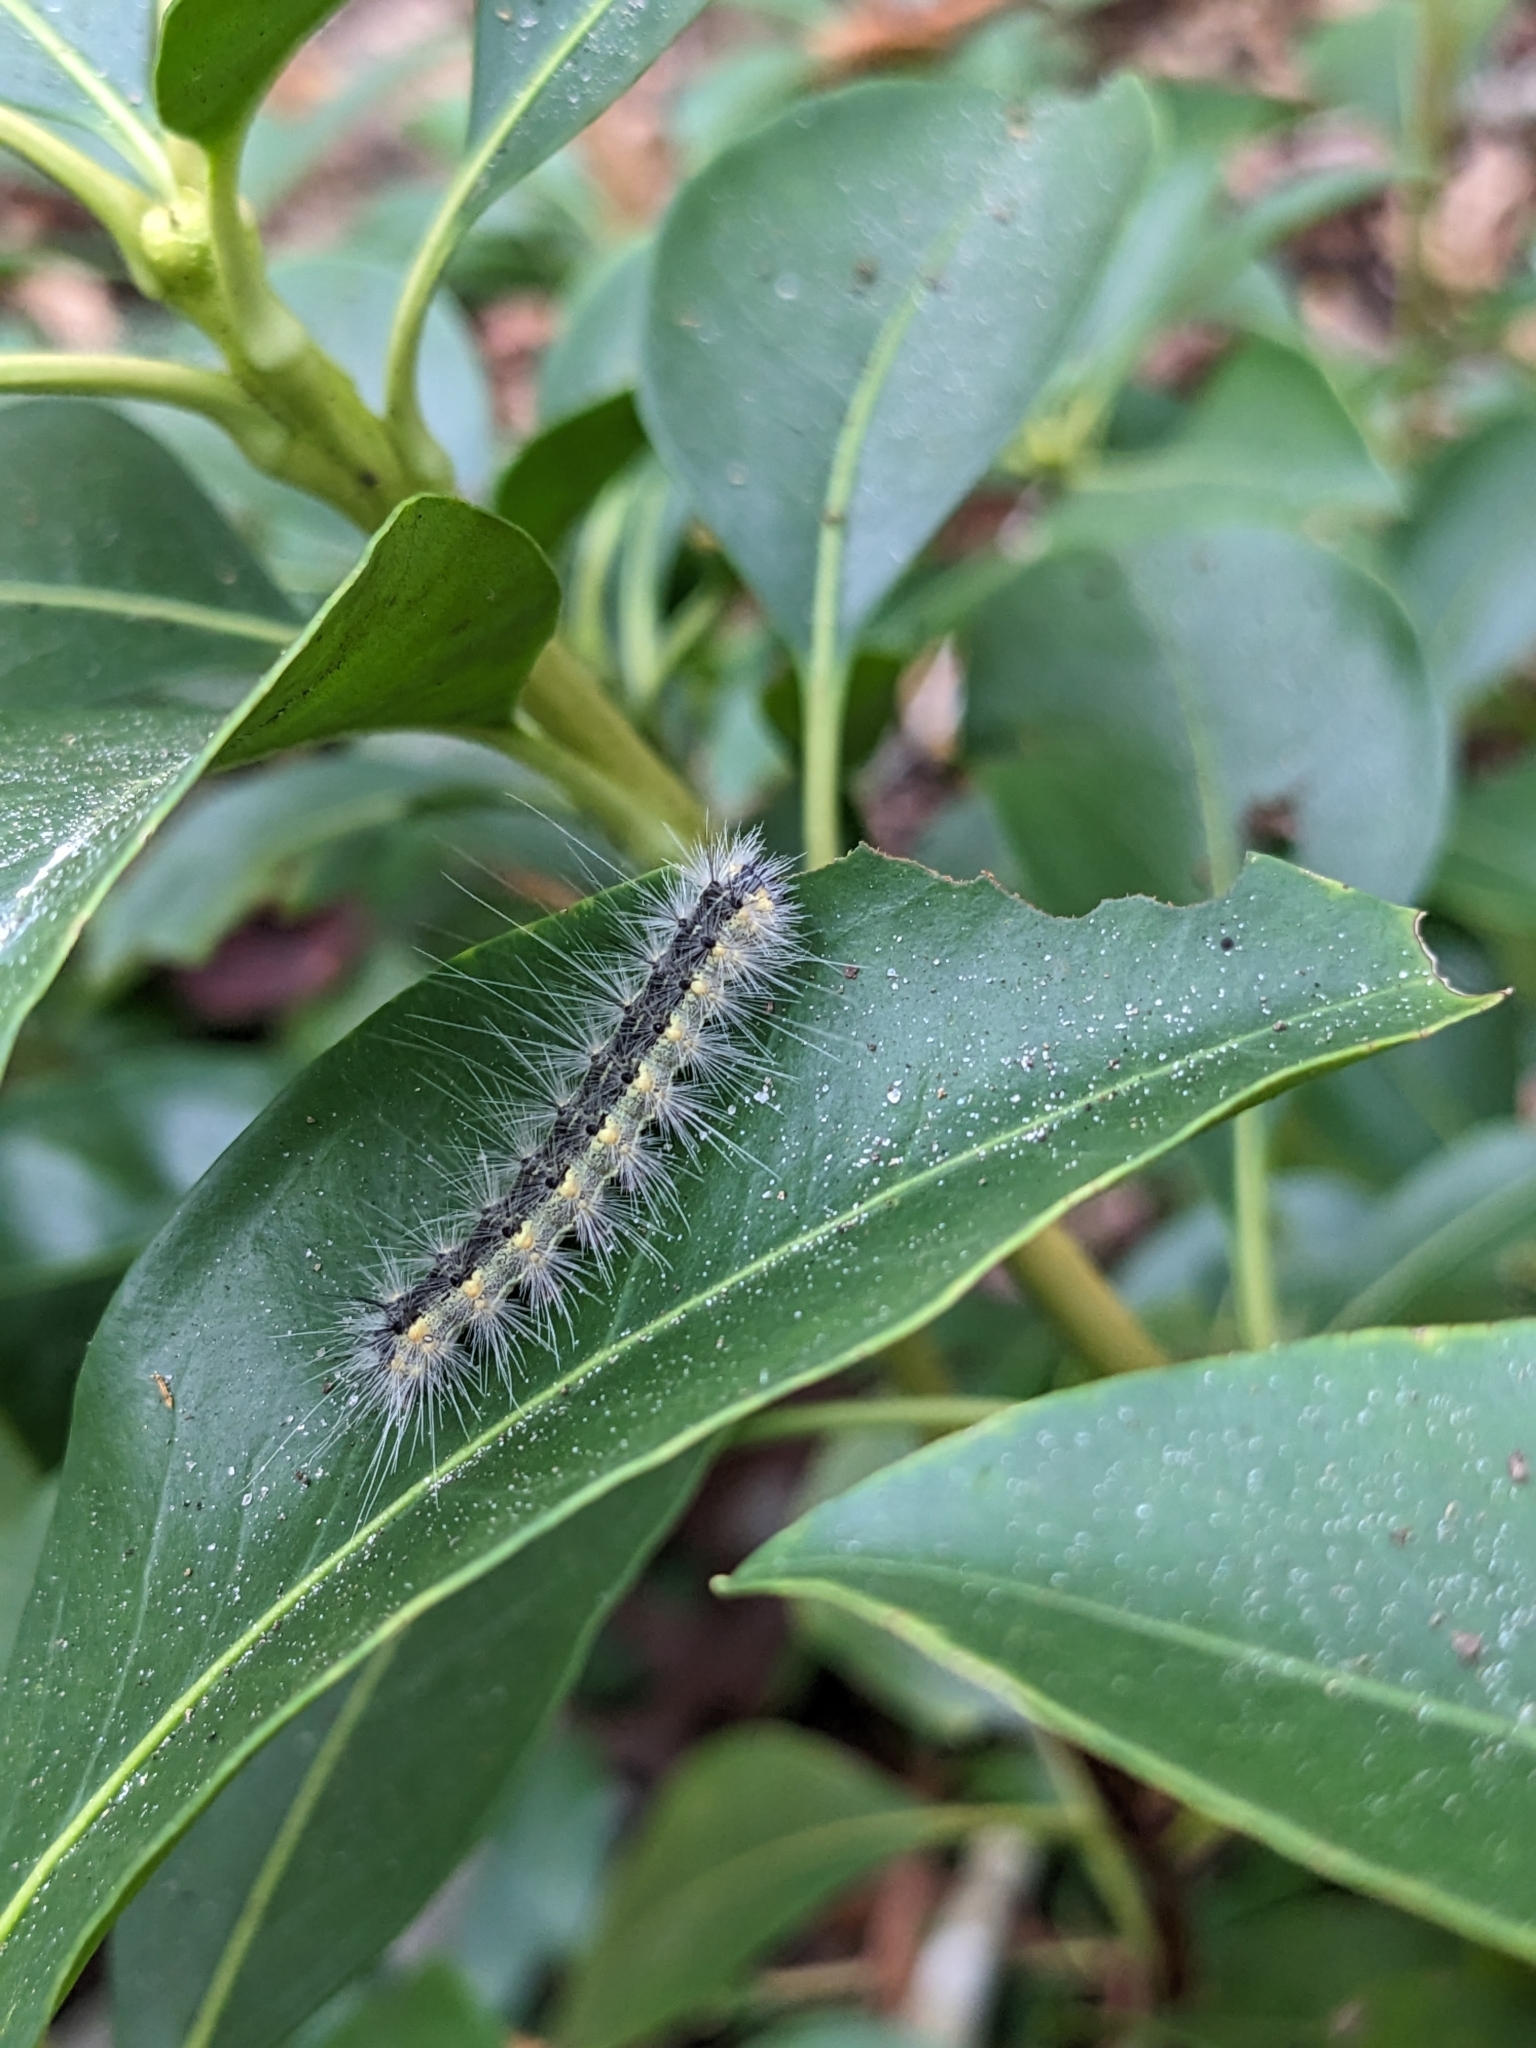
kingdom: Animalia
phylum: Arthropoda
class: Insecta
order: Lepidoptera
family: Erebidae
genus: Hyphantria
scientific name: Hyphantria cunea
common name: American white moth
